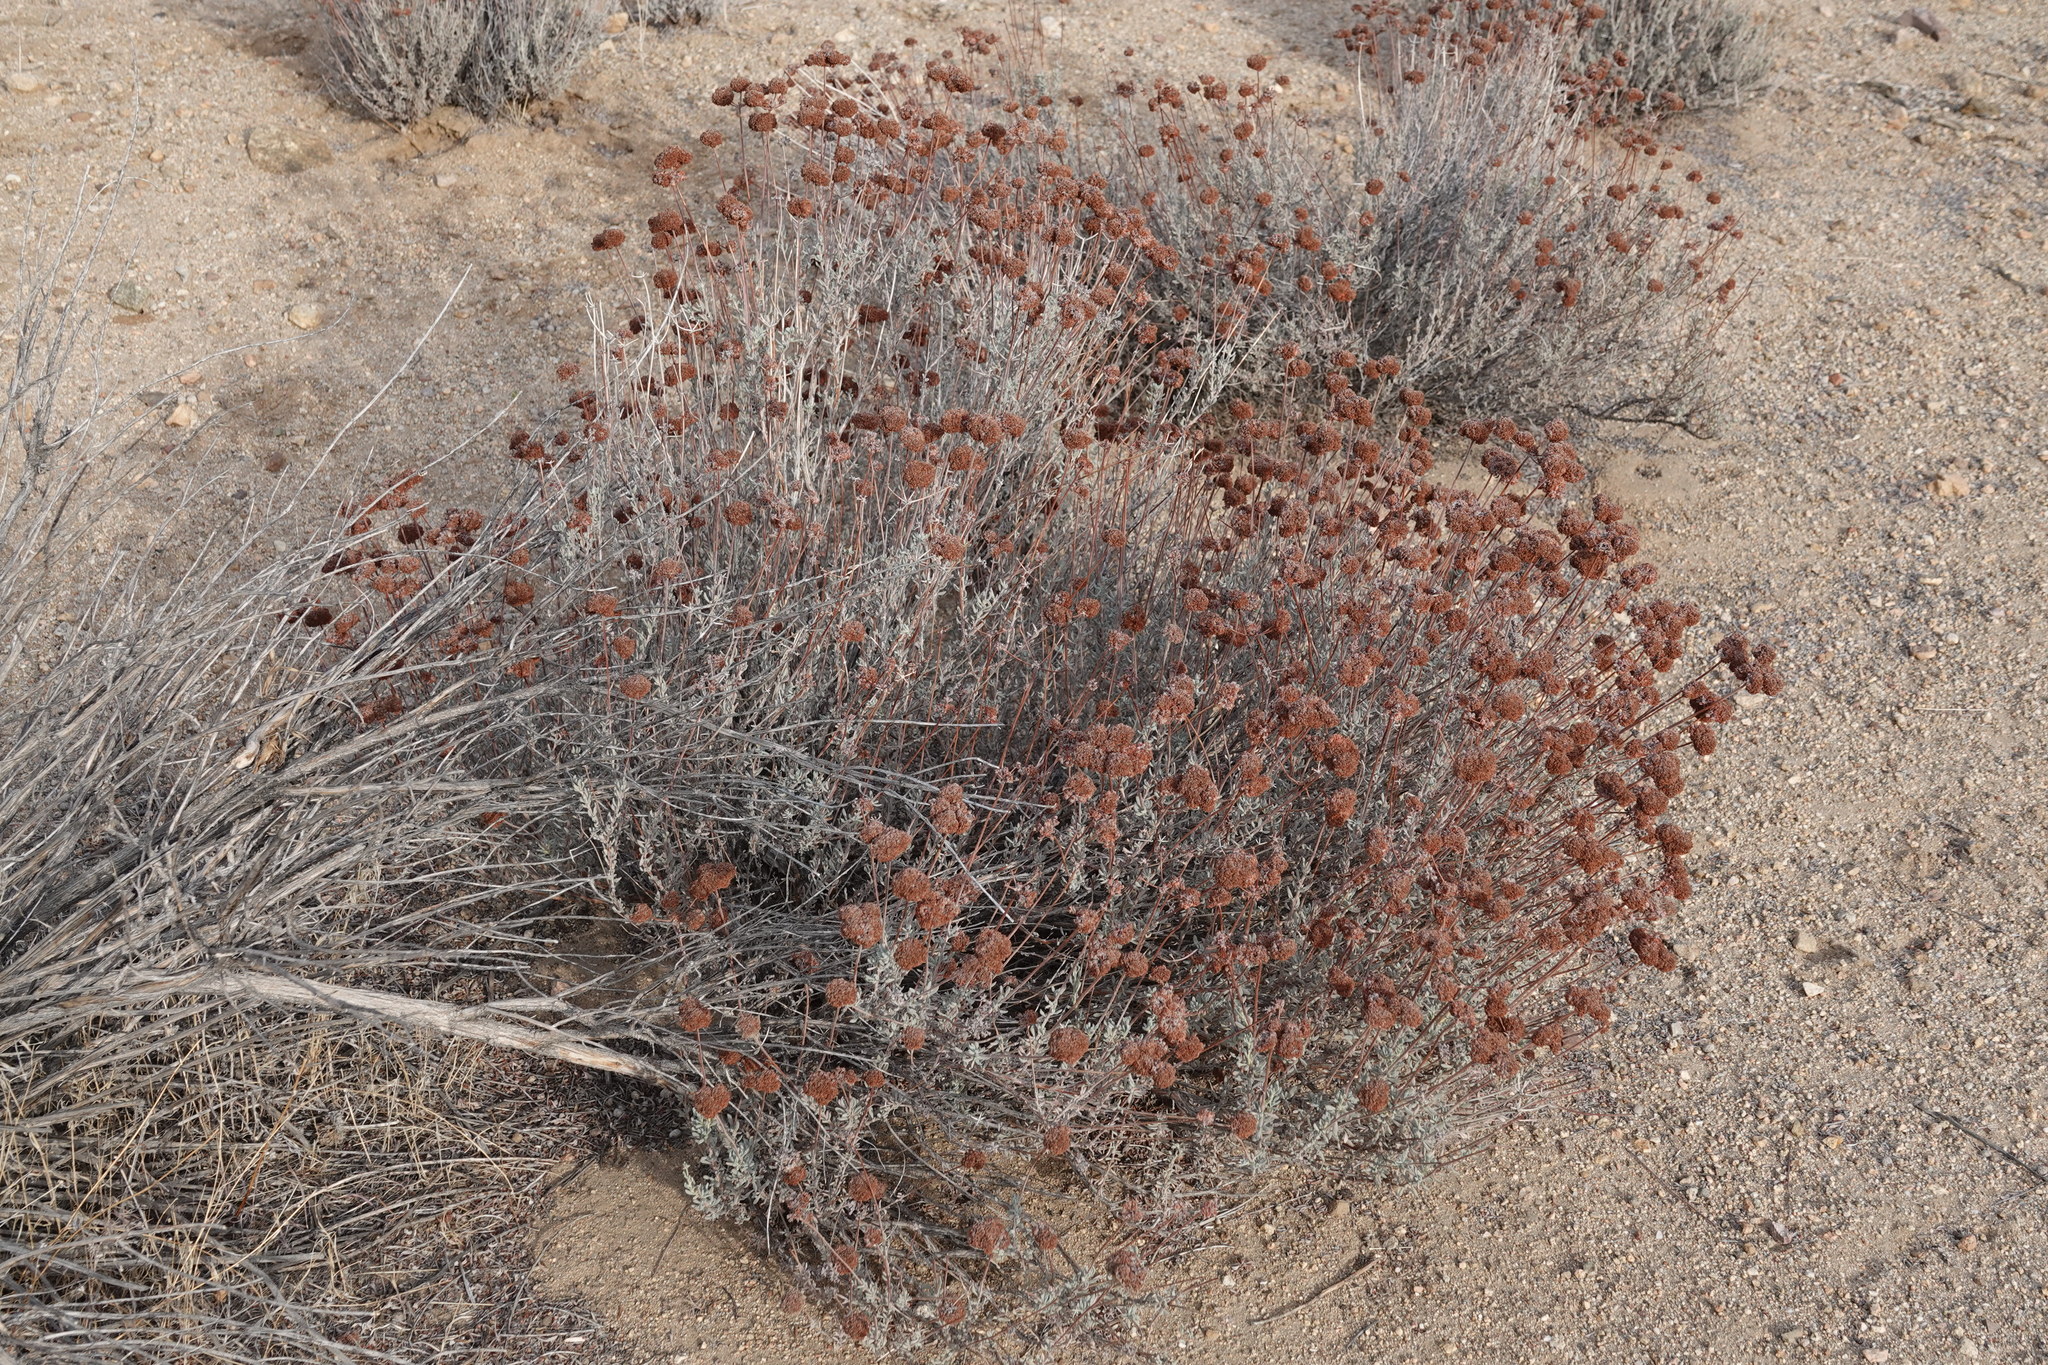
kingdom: Plantae
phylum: Tracheophyta
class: Magnoliopsida
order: Caryophyllales
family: Polygonaceae
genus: Eriogonum
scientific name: Eriogonum fasciculatum
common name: California wild buckwheat
